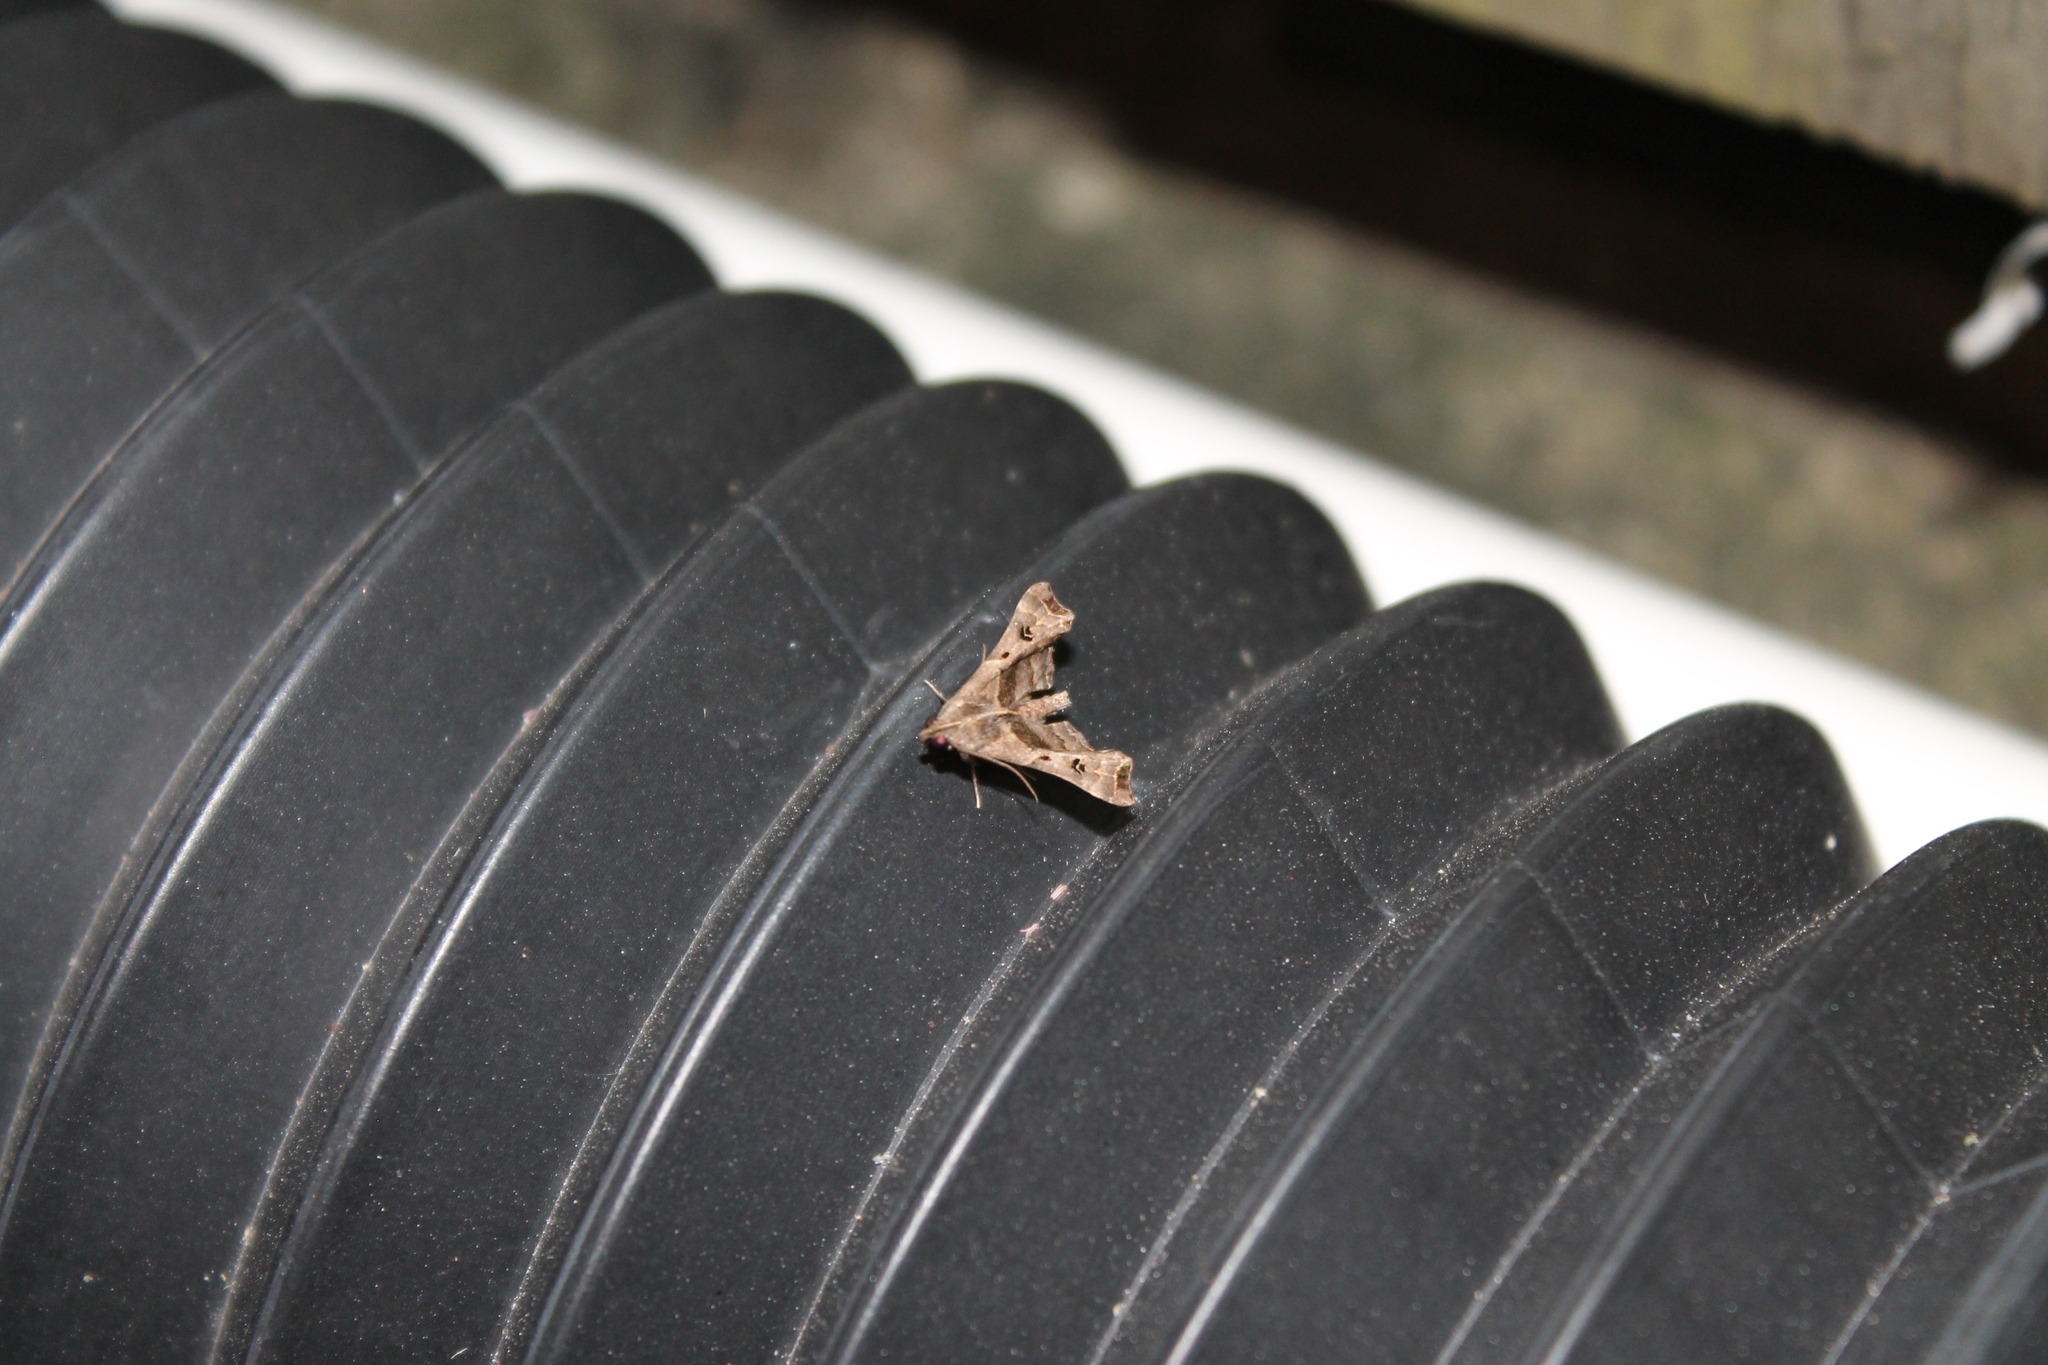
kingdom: Animalia
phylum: Arthropoda
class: Insecta
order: Lepidoptera
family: Erebidae
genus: Palthis
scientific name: Palthis asopialis
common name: Faint-spotted palthis moth
